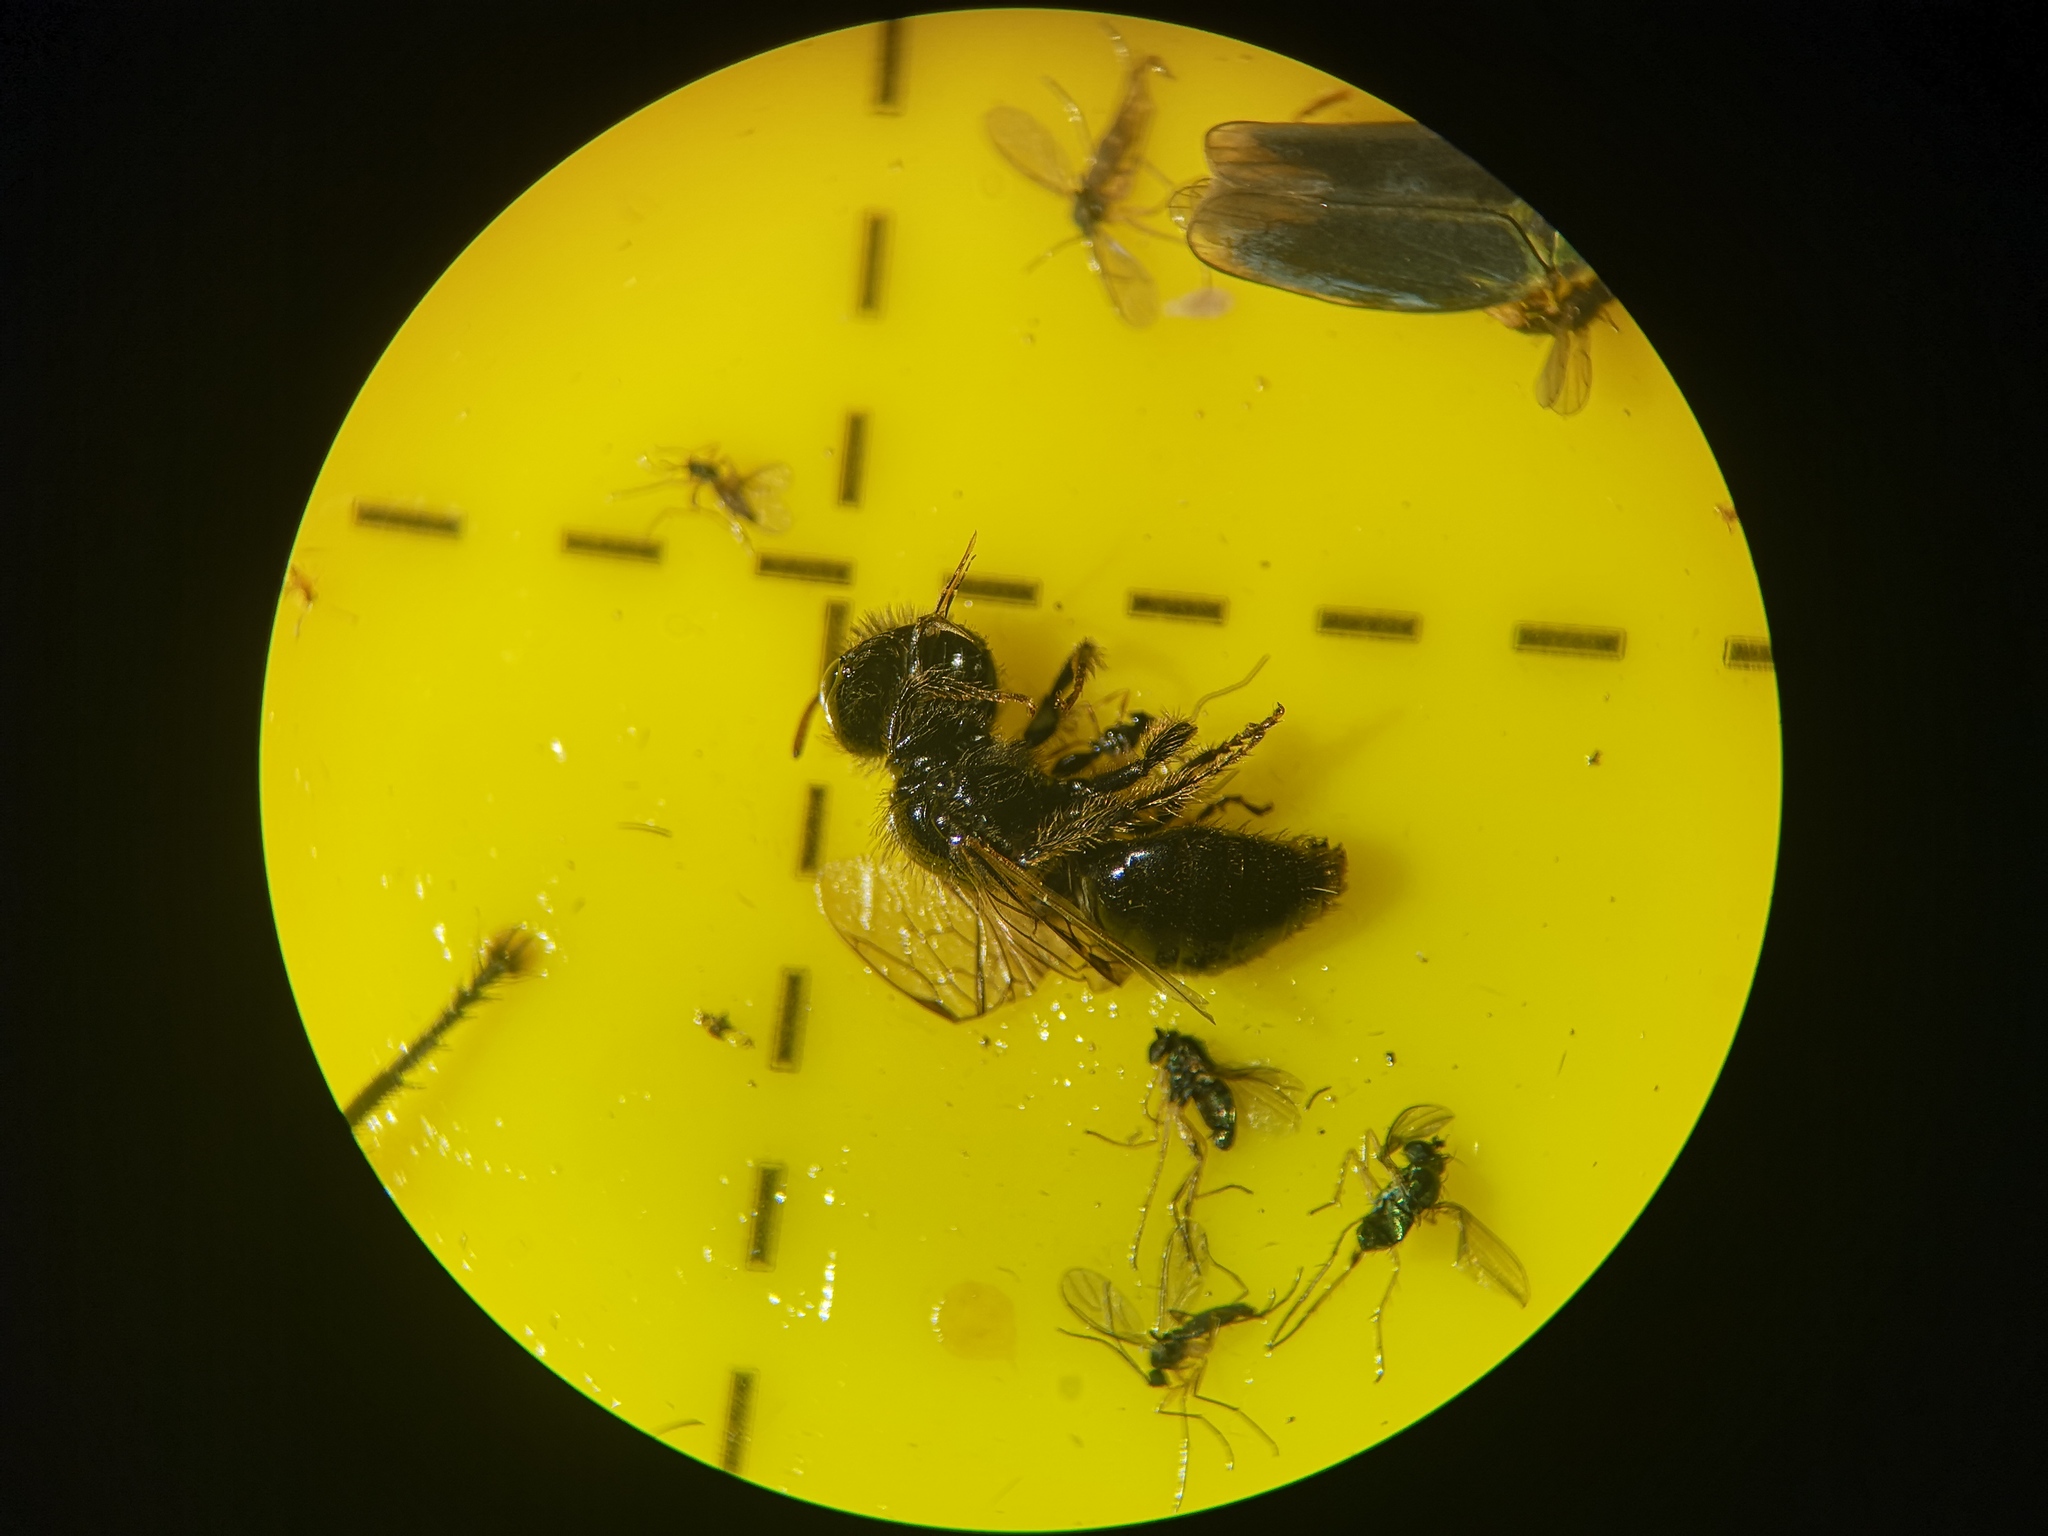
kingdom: Animalia
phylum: Arthropoda
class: Insecta
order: Hymenoptera
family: Andrenidae
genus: Panurgus
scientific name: Panurgus calcaratus
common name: Small shaggy bee
